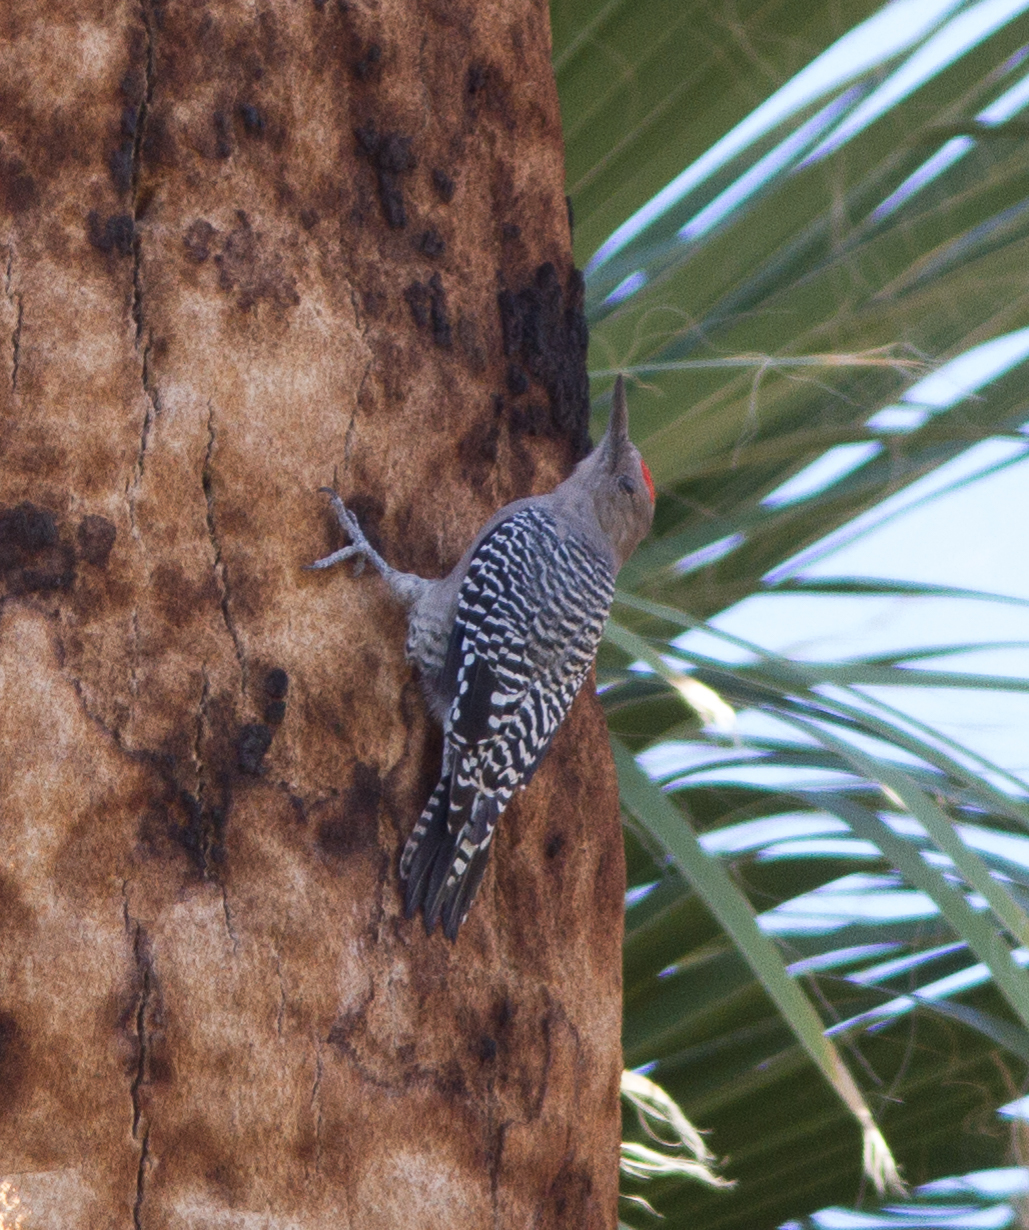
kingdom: Animalia
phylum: Chordata
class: Aves
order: Piciformes
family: Picidae
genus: Melanerpes
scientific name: Melanerpes uropygialis
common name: Gila woodpecker
